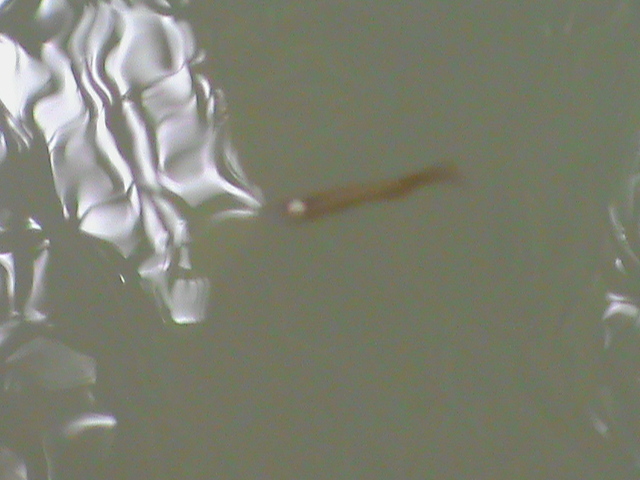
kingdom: Animalia
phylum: Chordata
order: Cyprinodontiformes
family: Aplocheilidae
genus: Aplocheilus
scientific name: Aplocheilus lineatus
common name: Striped panchax
